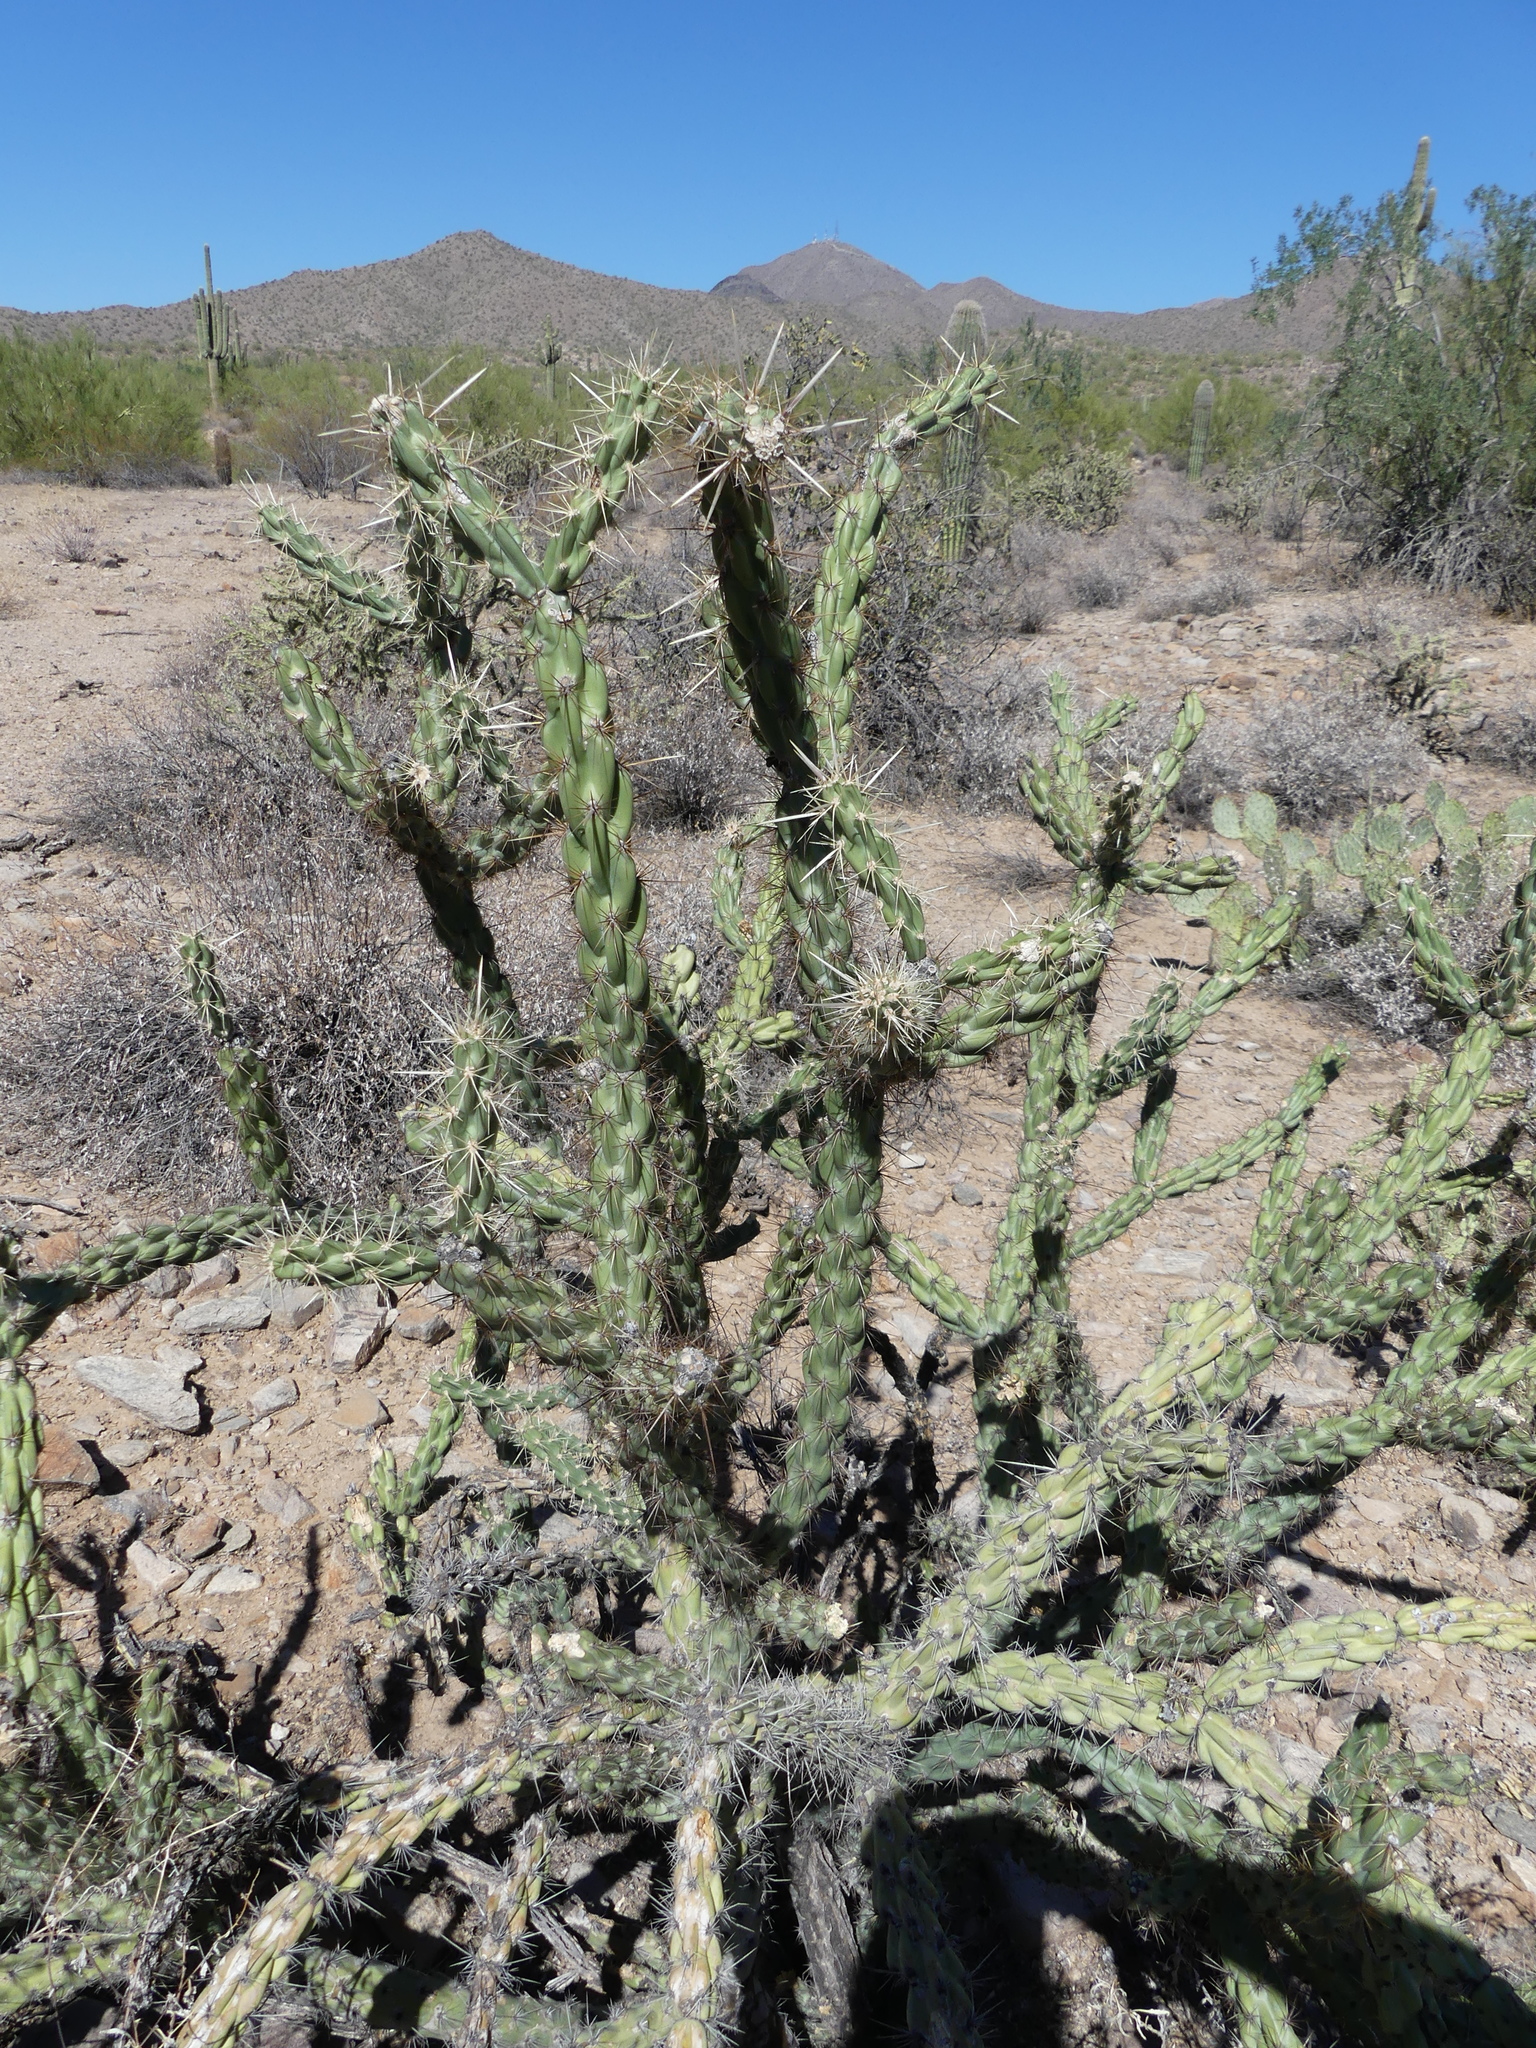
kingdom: Plantae
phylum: Tracheophyta
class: Magnoliopsida
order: Caryophyllales
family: Cactaceae
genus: Cylindropuntia
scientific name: Cylindropuntia acanthocarpa
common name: Buckhorn cholla
